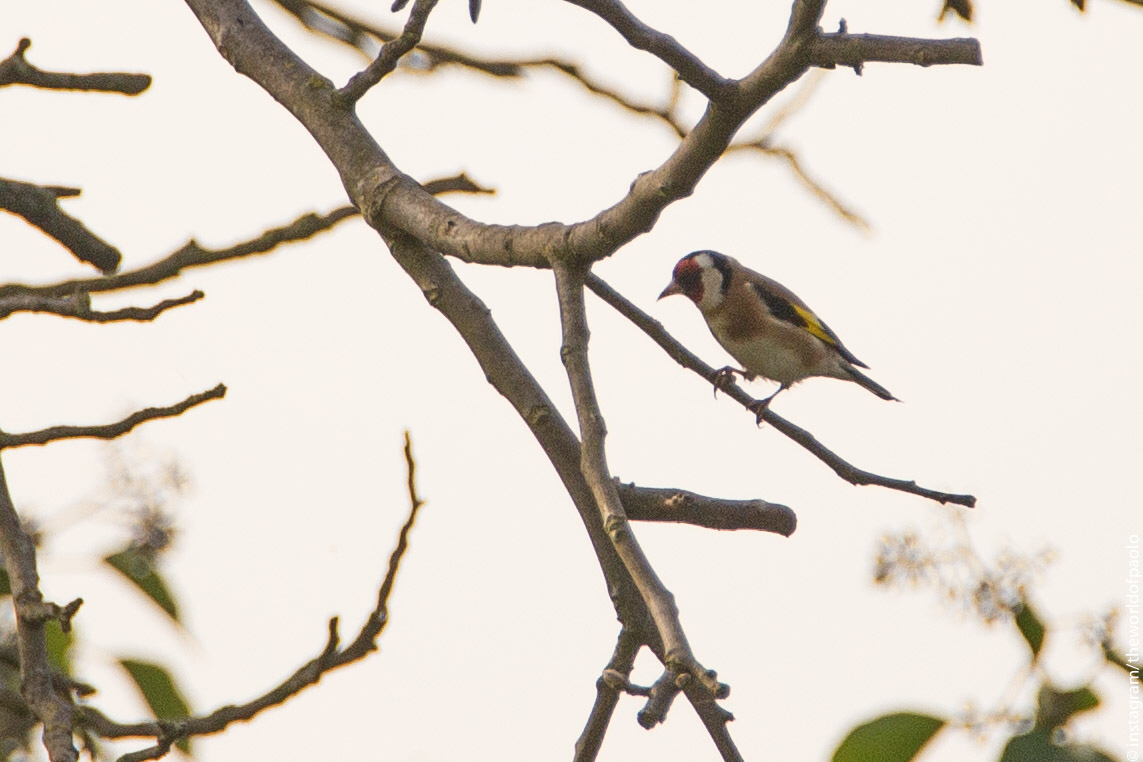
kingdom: Animalia
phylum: Chordata
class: Aves
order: Passeriformes
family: Fringillidae
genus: Carduelis
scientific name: Carduelis carduelis
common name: European goldfinch
